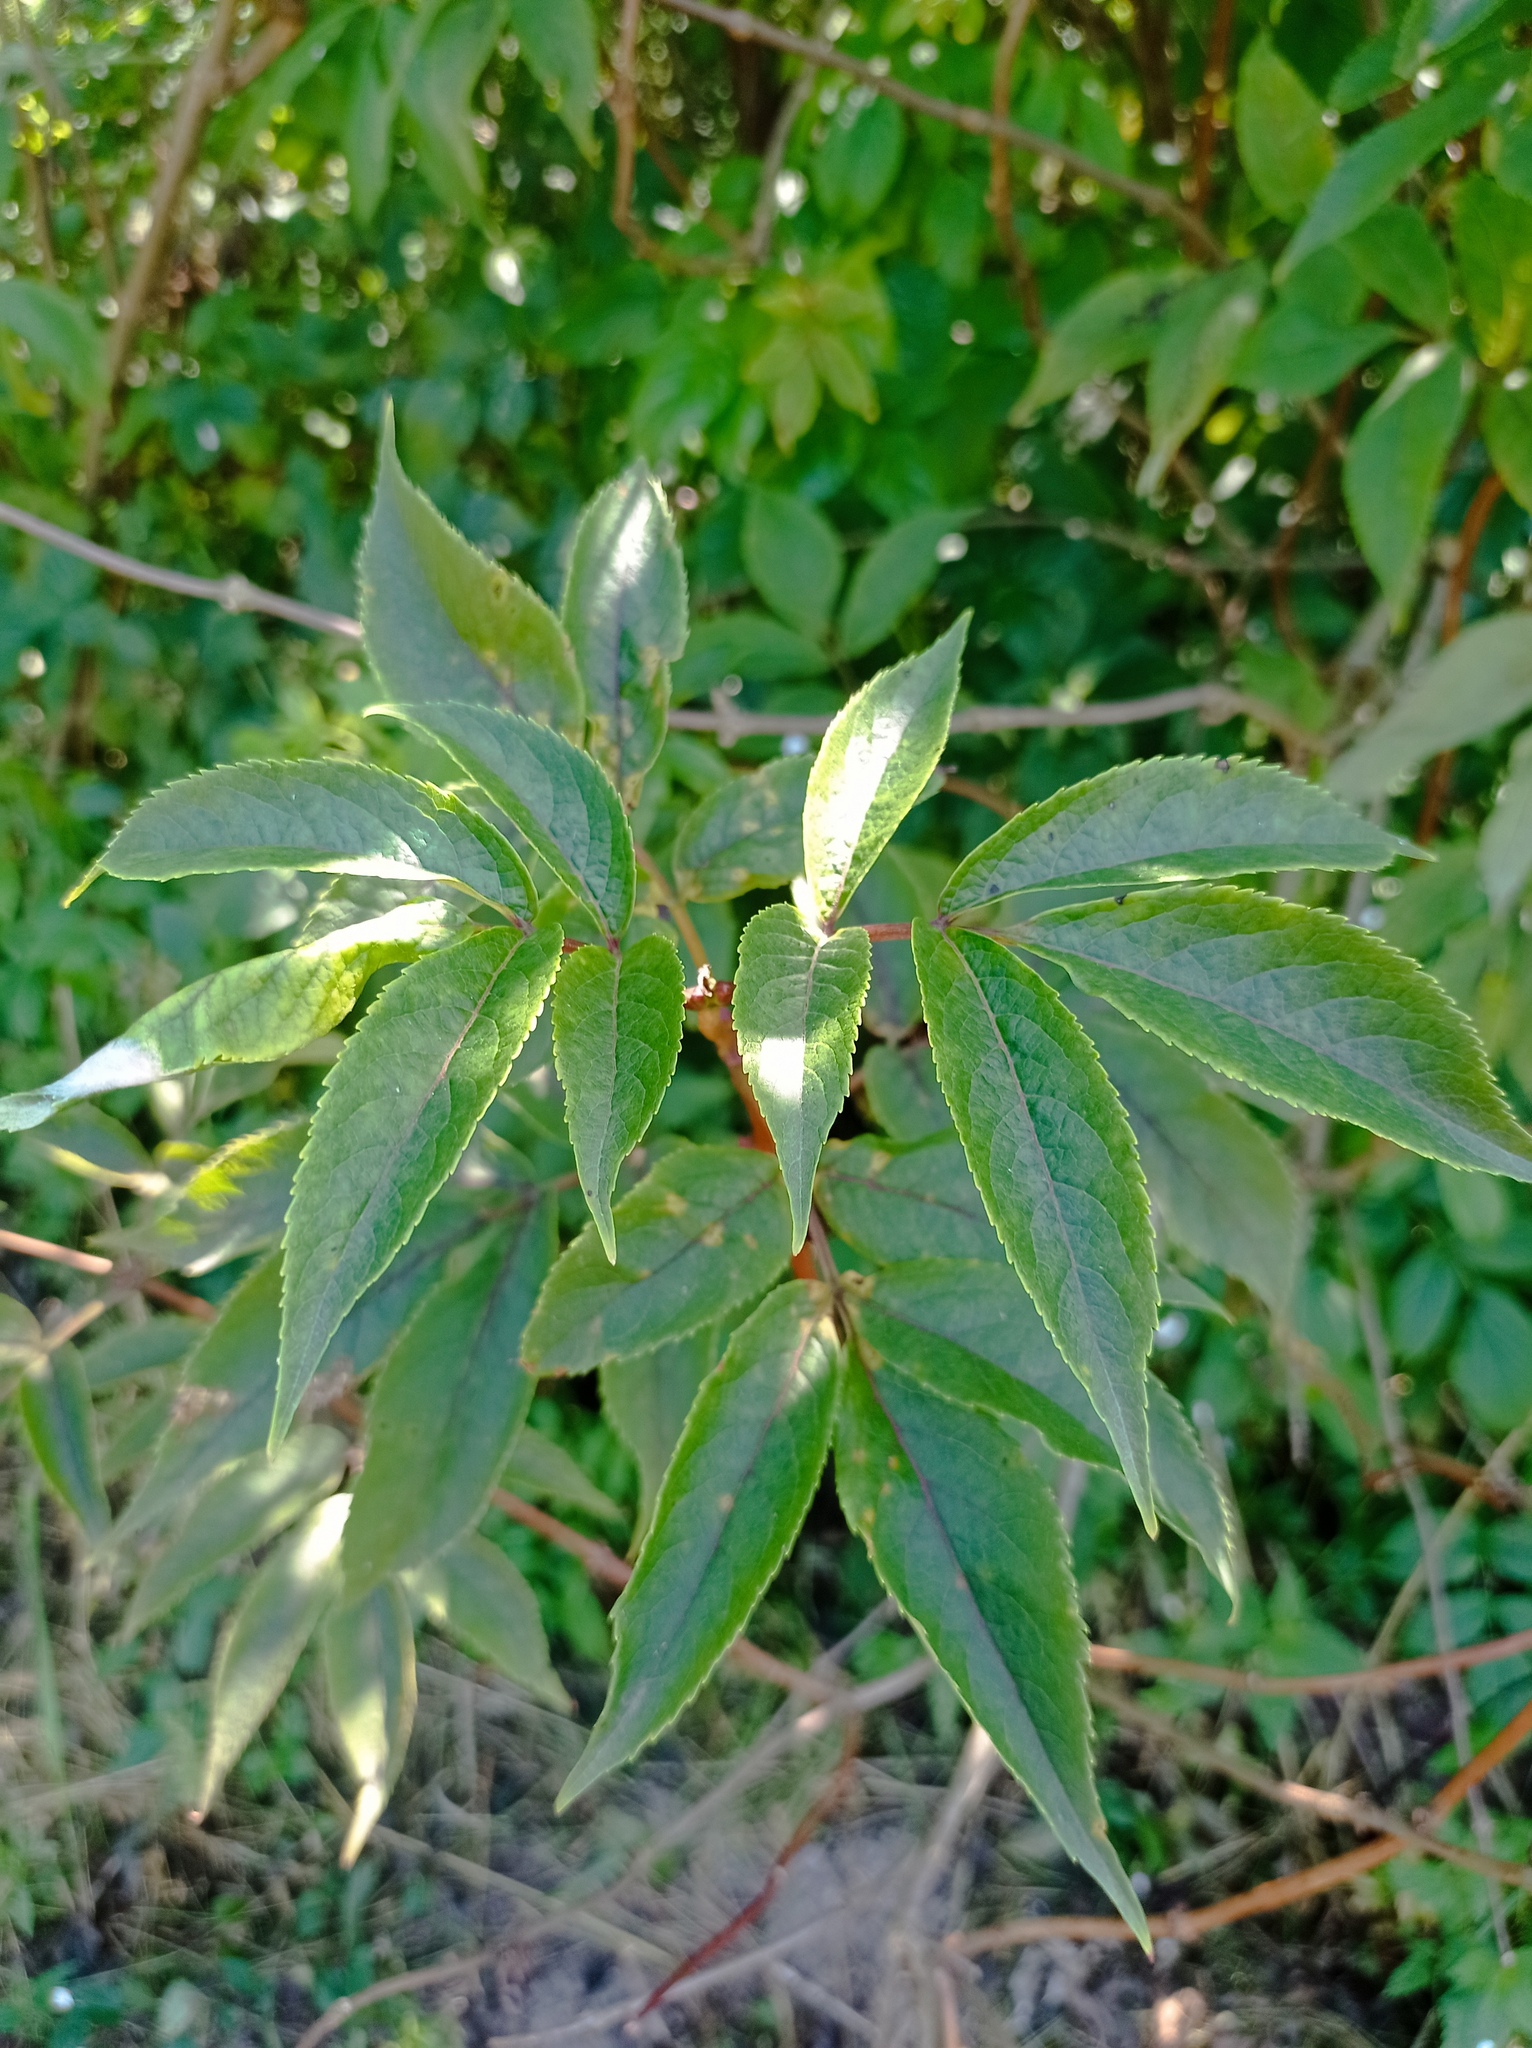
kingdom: Plantae
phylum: Tracheophyta
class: Magnoliopsida
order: Dipsacales
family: Viburnaceae
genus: Sambucus
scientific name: Sambucus racemosa
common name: Red-berried elder
